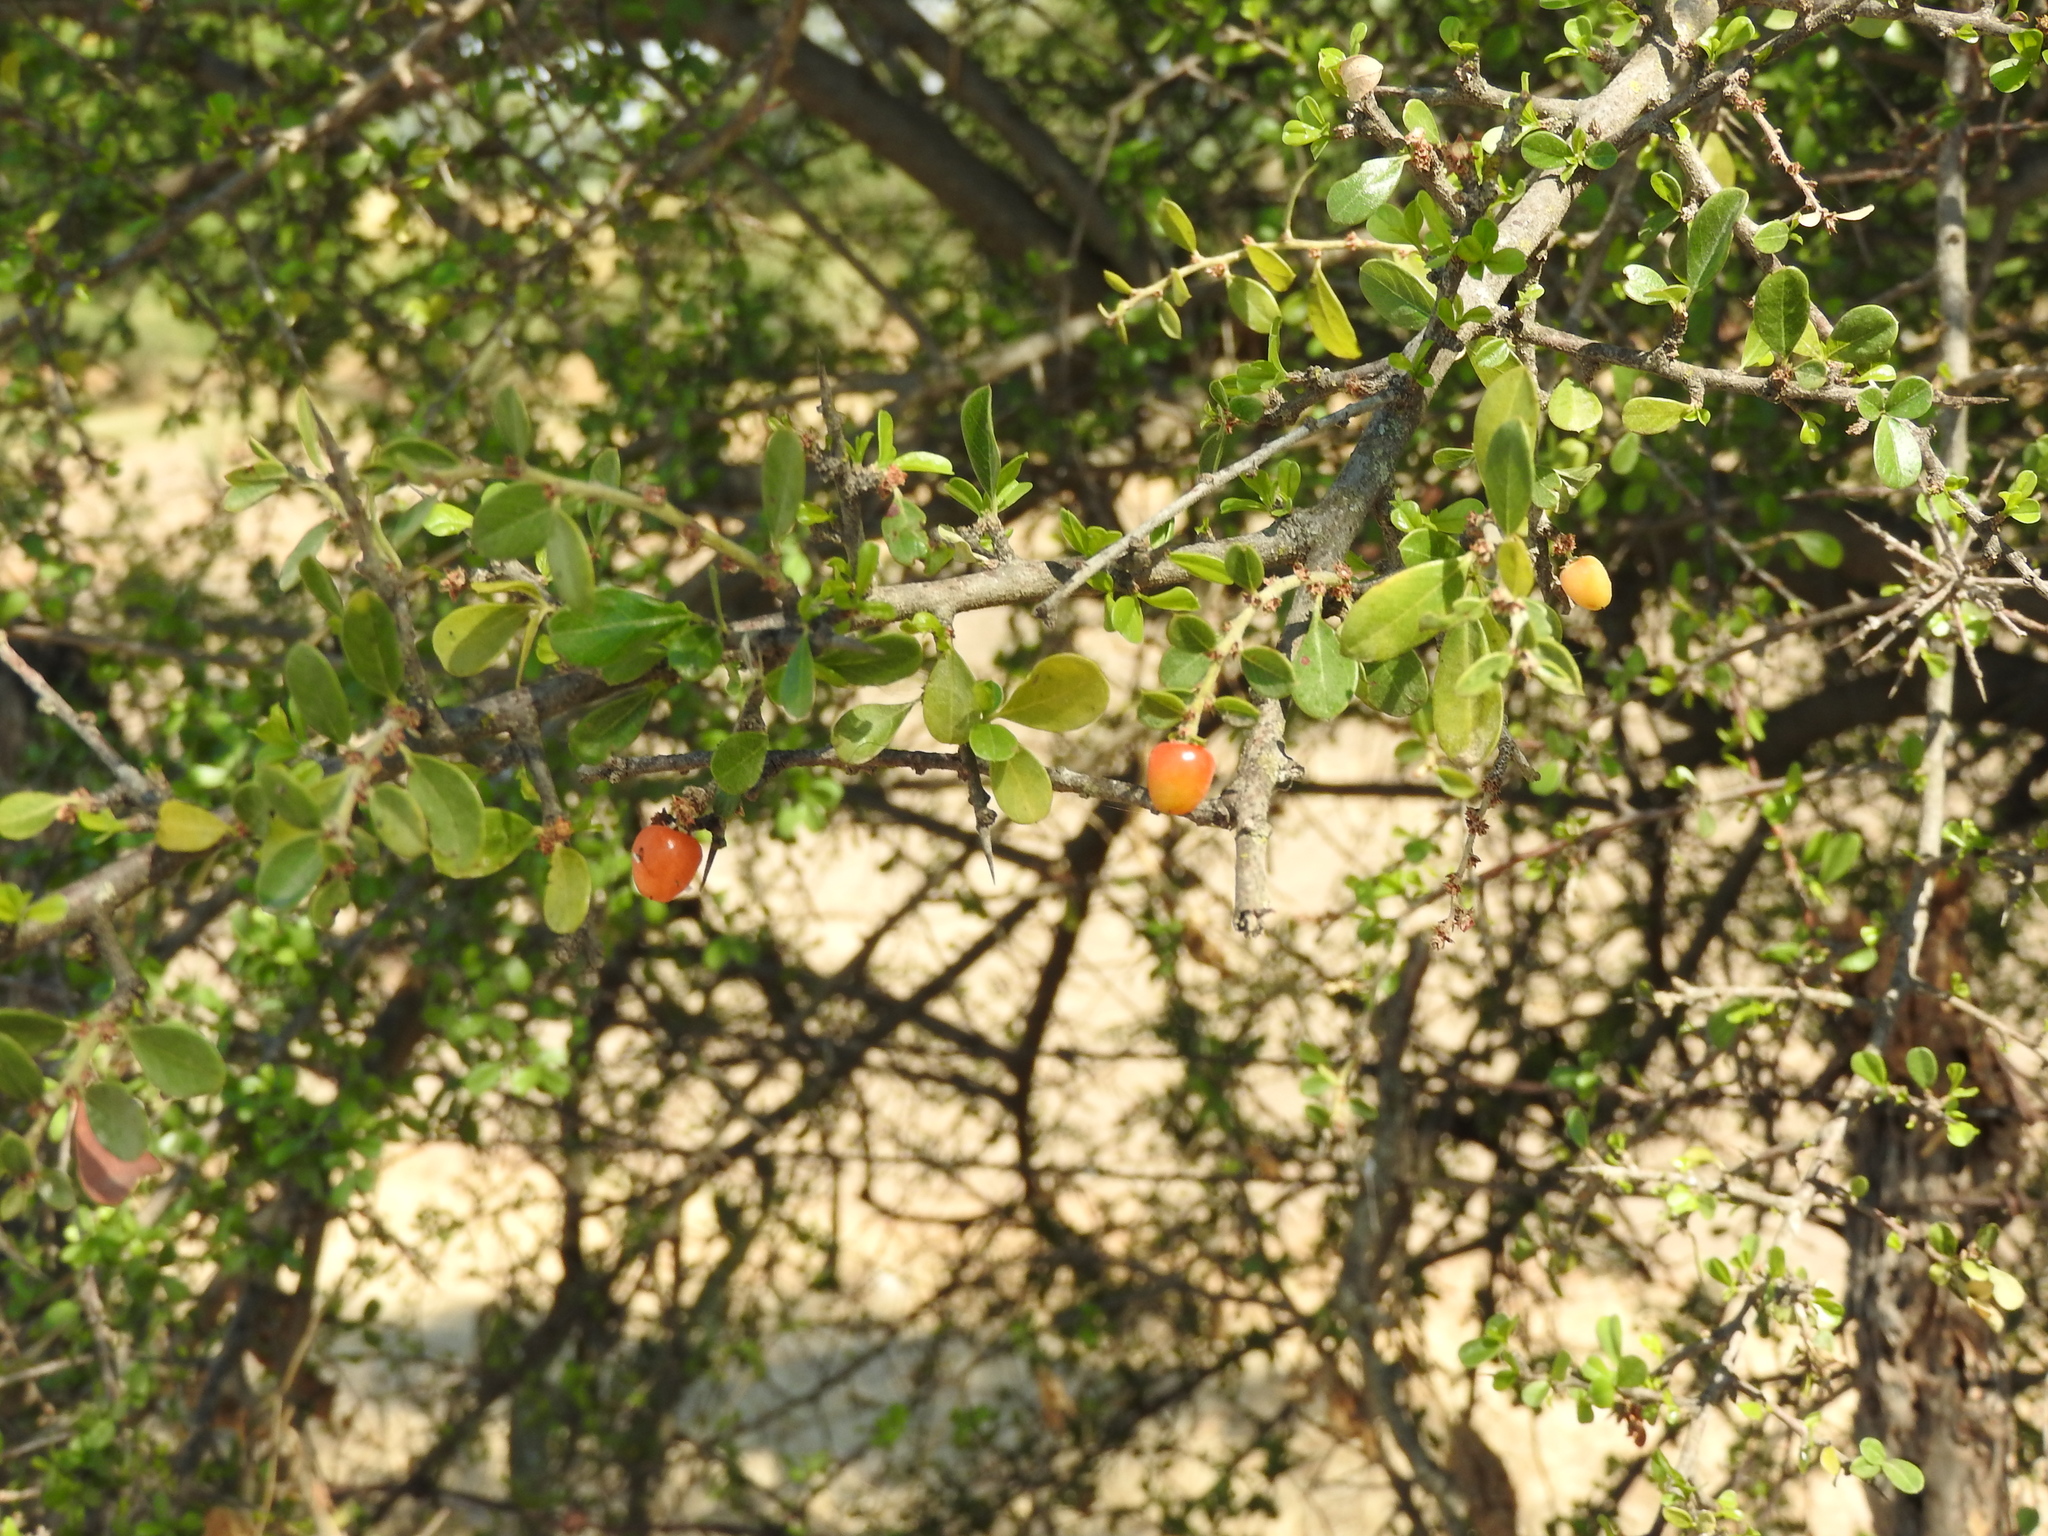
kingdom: Plantae
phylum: Tracheophyta
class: Magnoliopsida
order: Rosales
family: Rhamnaceae
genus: Condalia
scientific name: Condalia velutina
